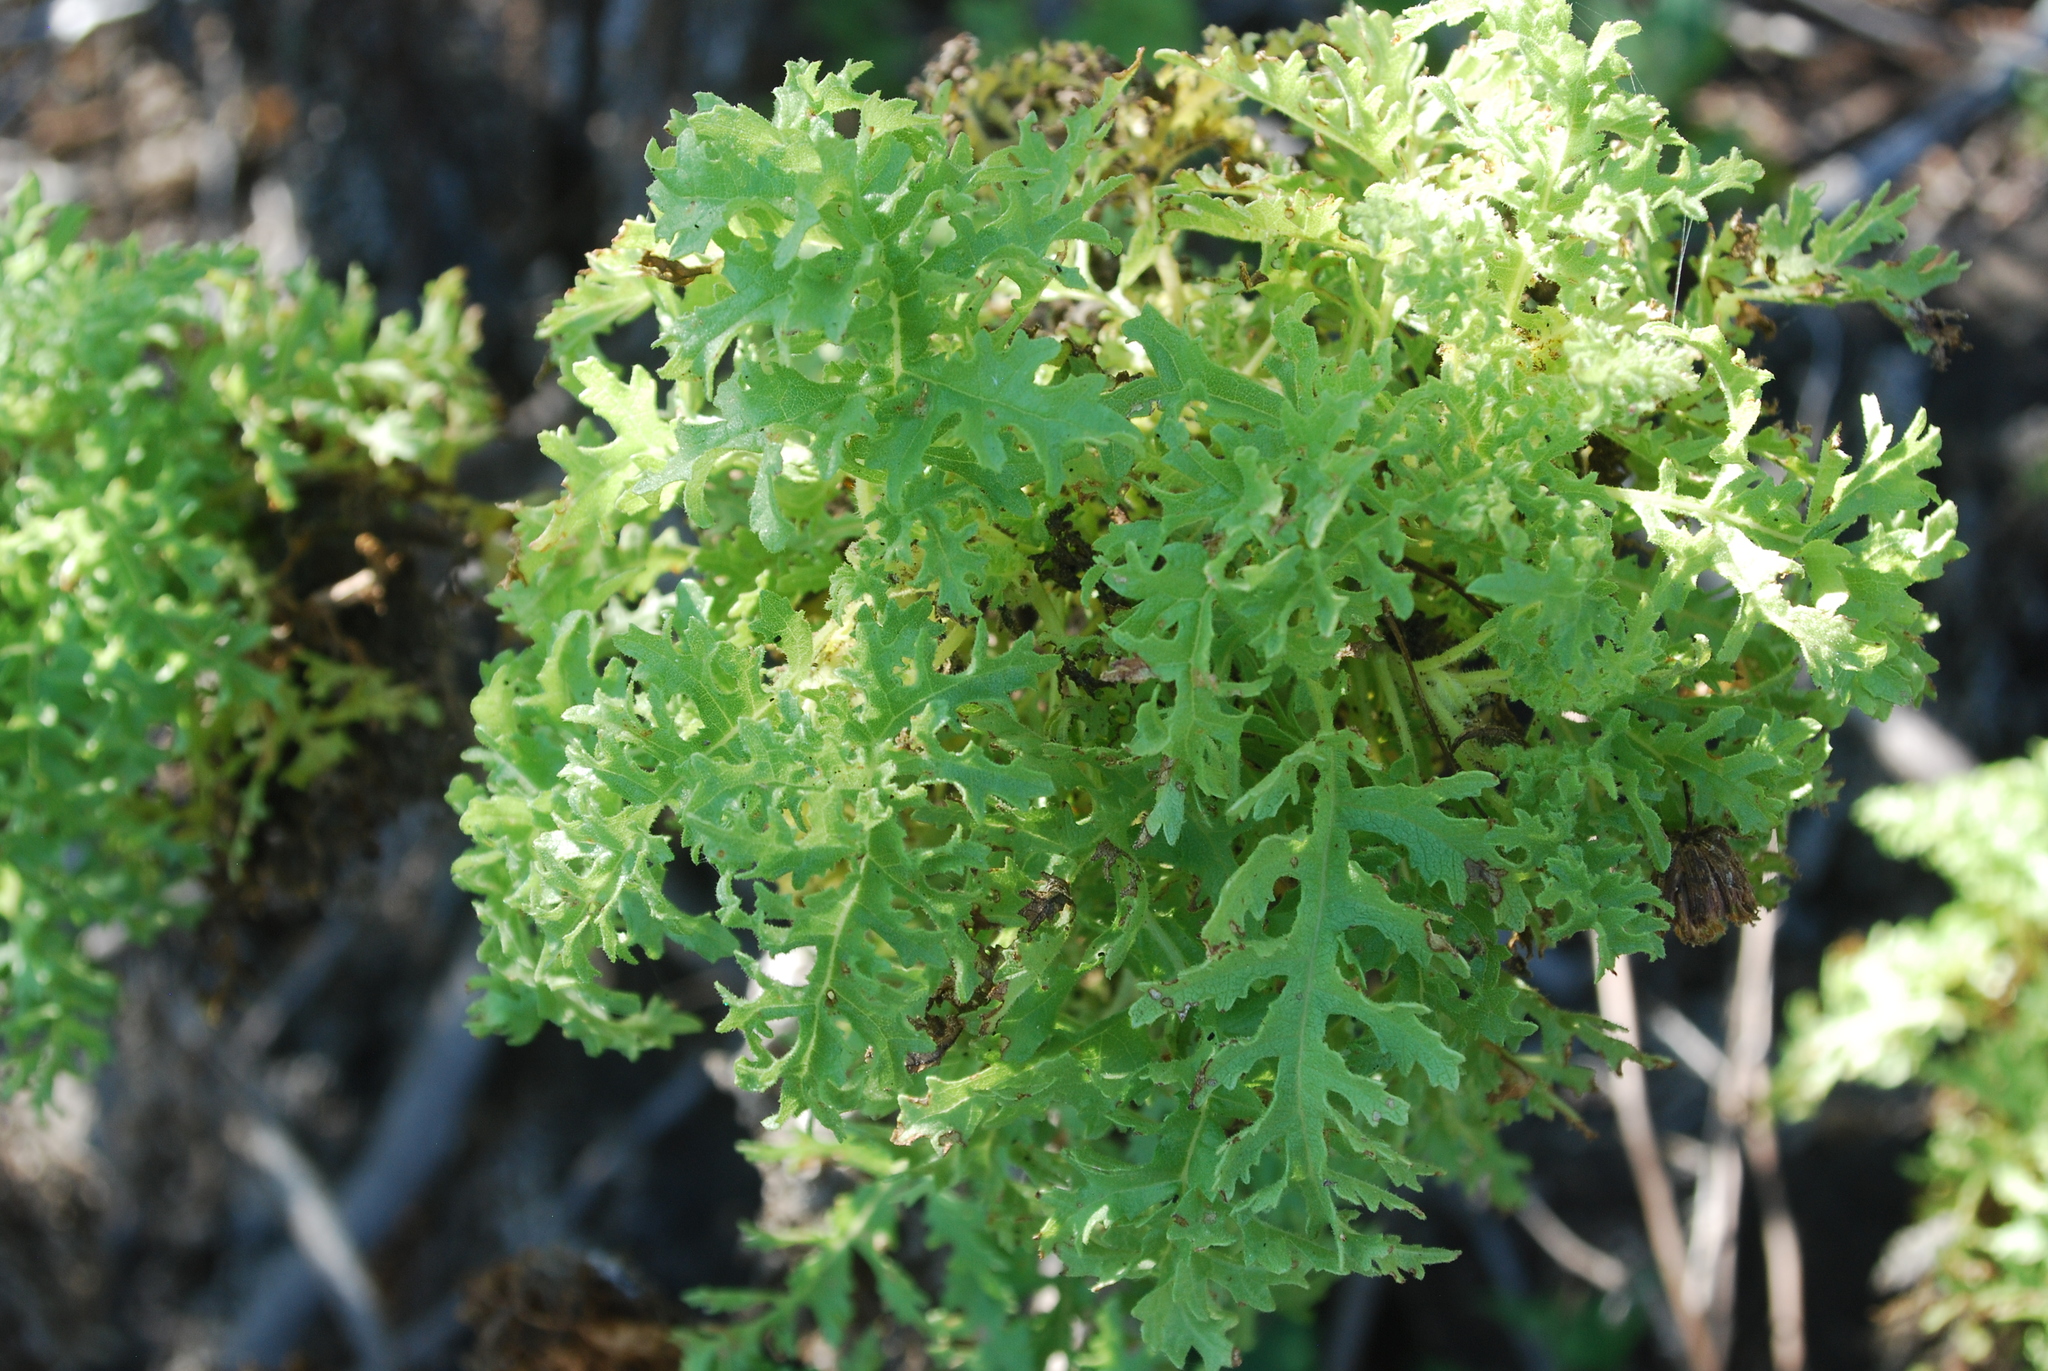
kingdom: Plantae
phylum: Tracheophyta
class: Magnoliopsida
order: Asterales
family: Asteraceae
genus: Scalesia
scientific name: Scalesia helleri
